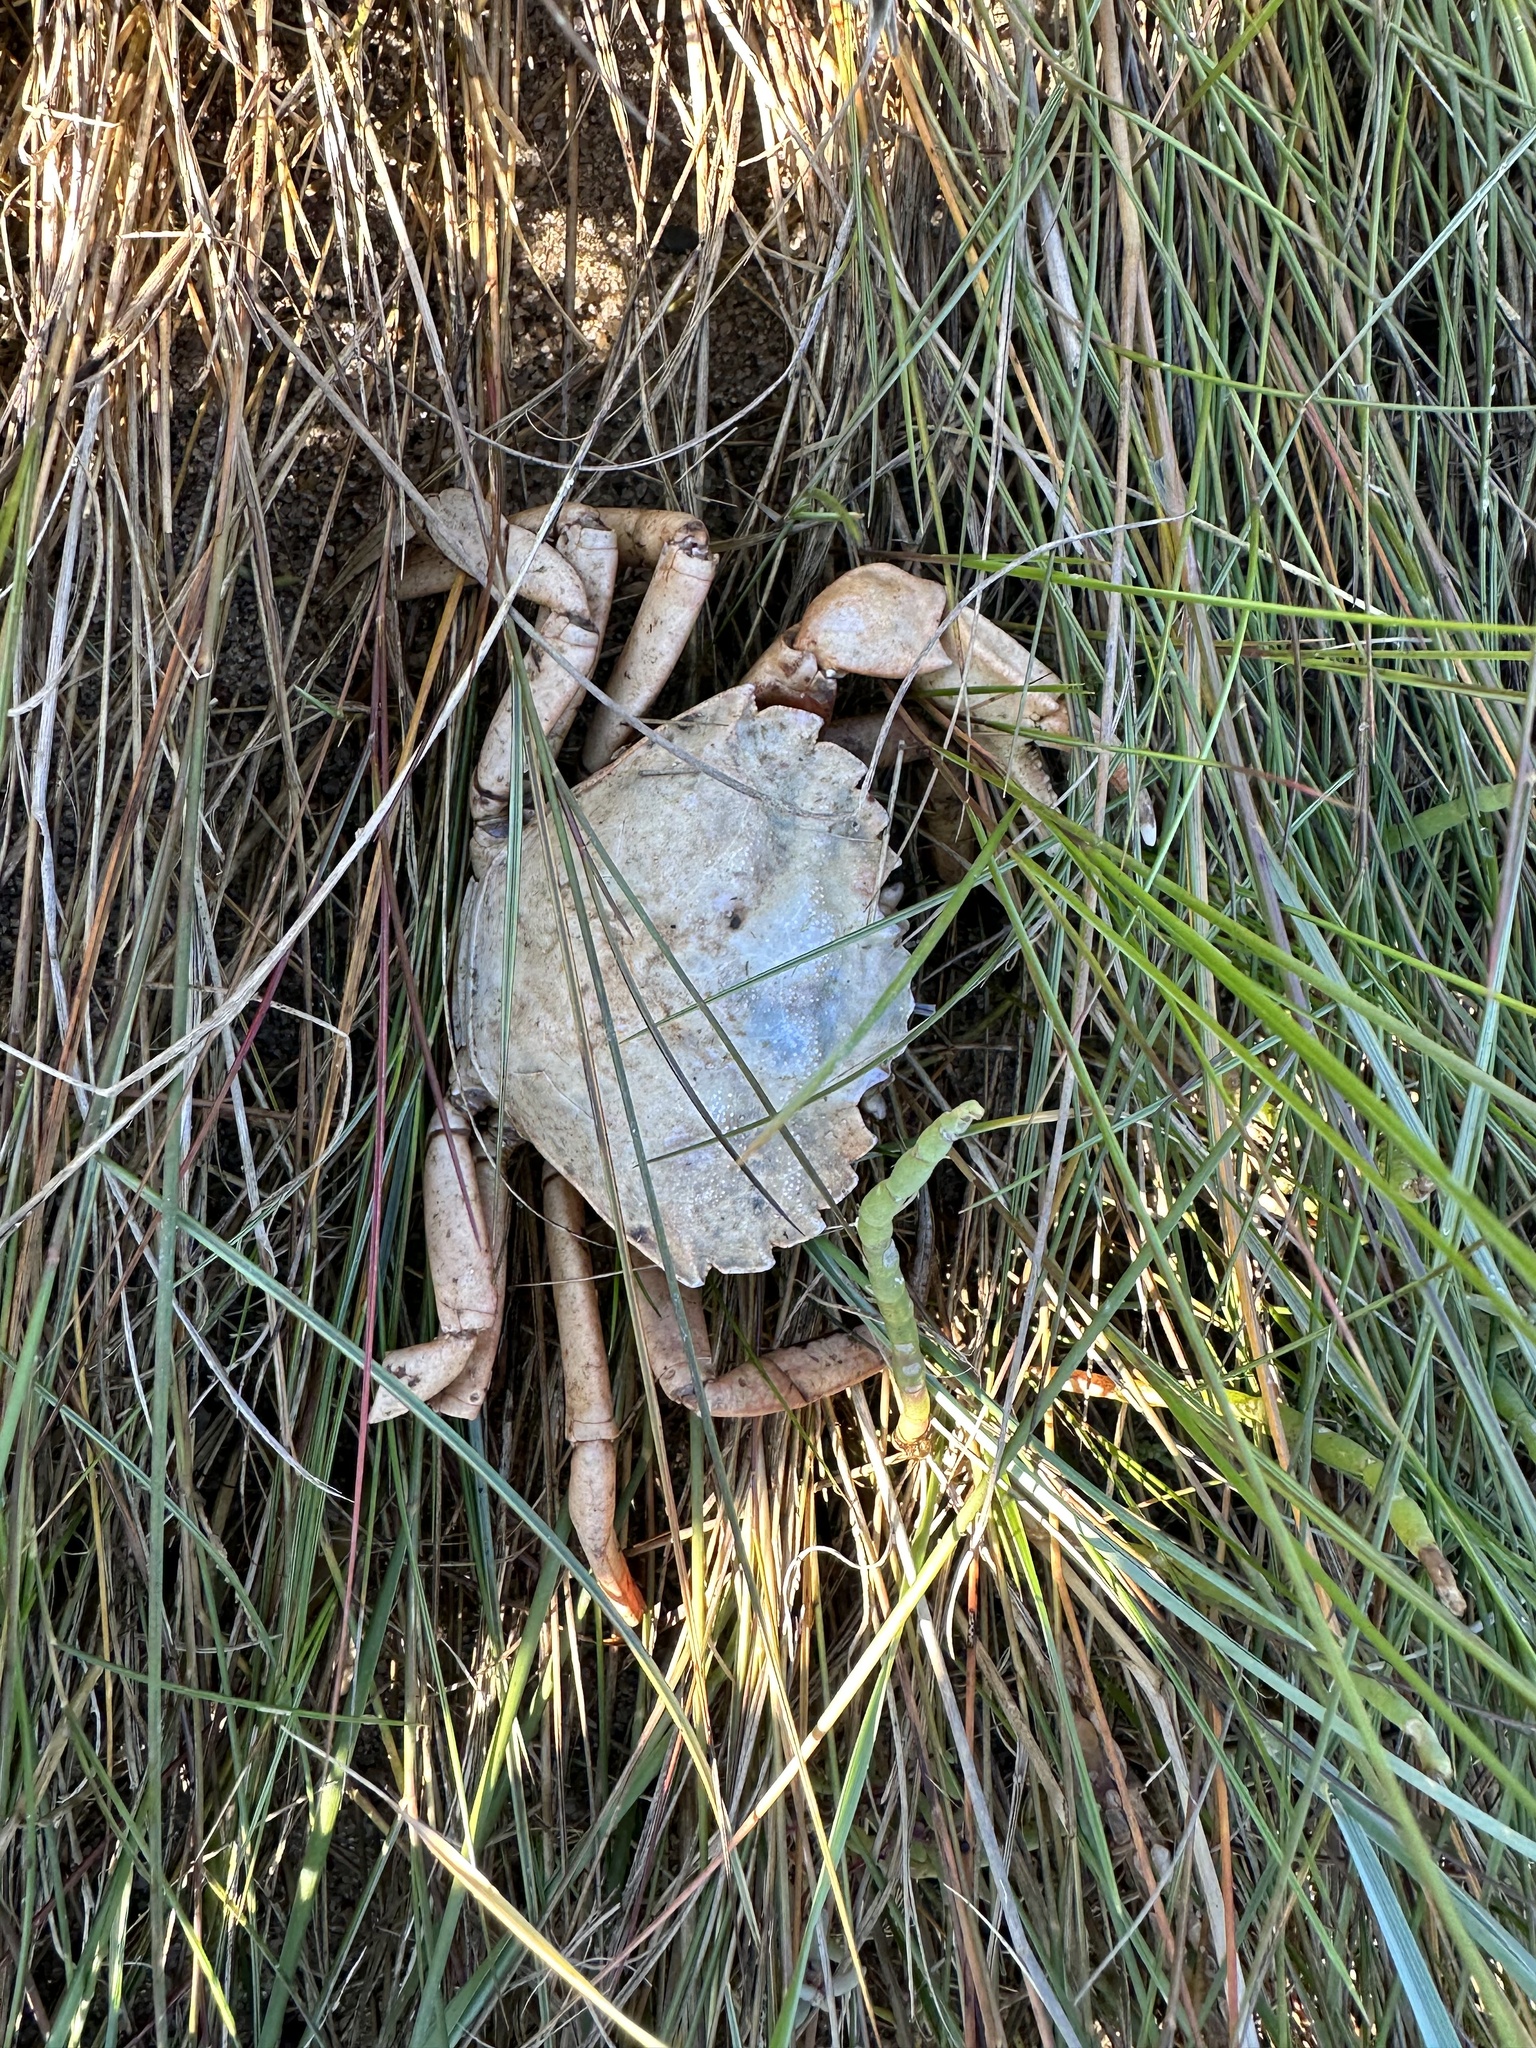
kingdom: Animalia
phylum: Arthropoda
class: Malacostraca
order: Decapoda
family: Carcinidae
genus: Carcinus
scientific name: Carcinus maenas
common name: European green crab
